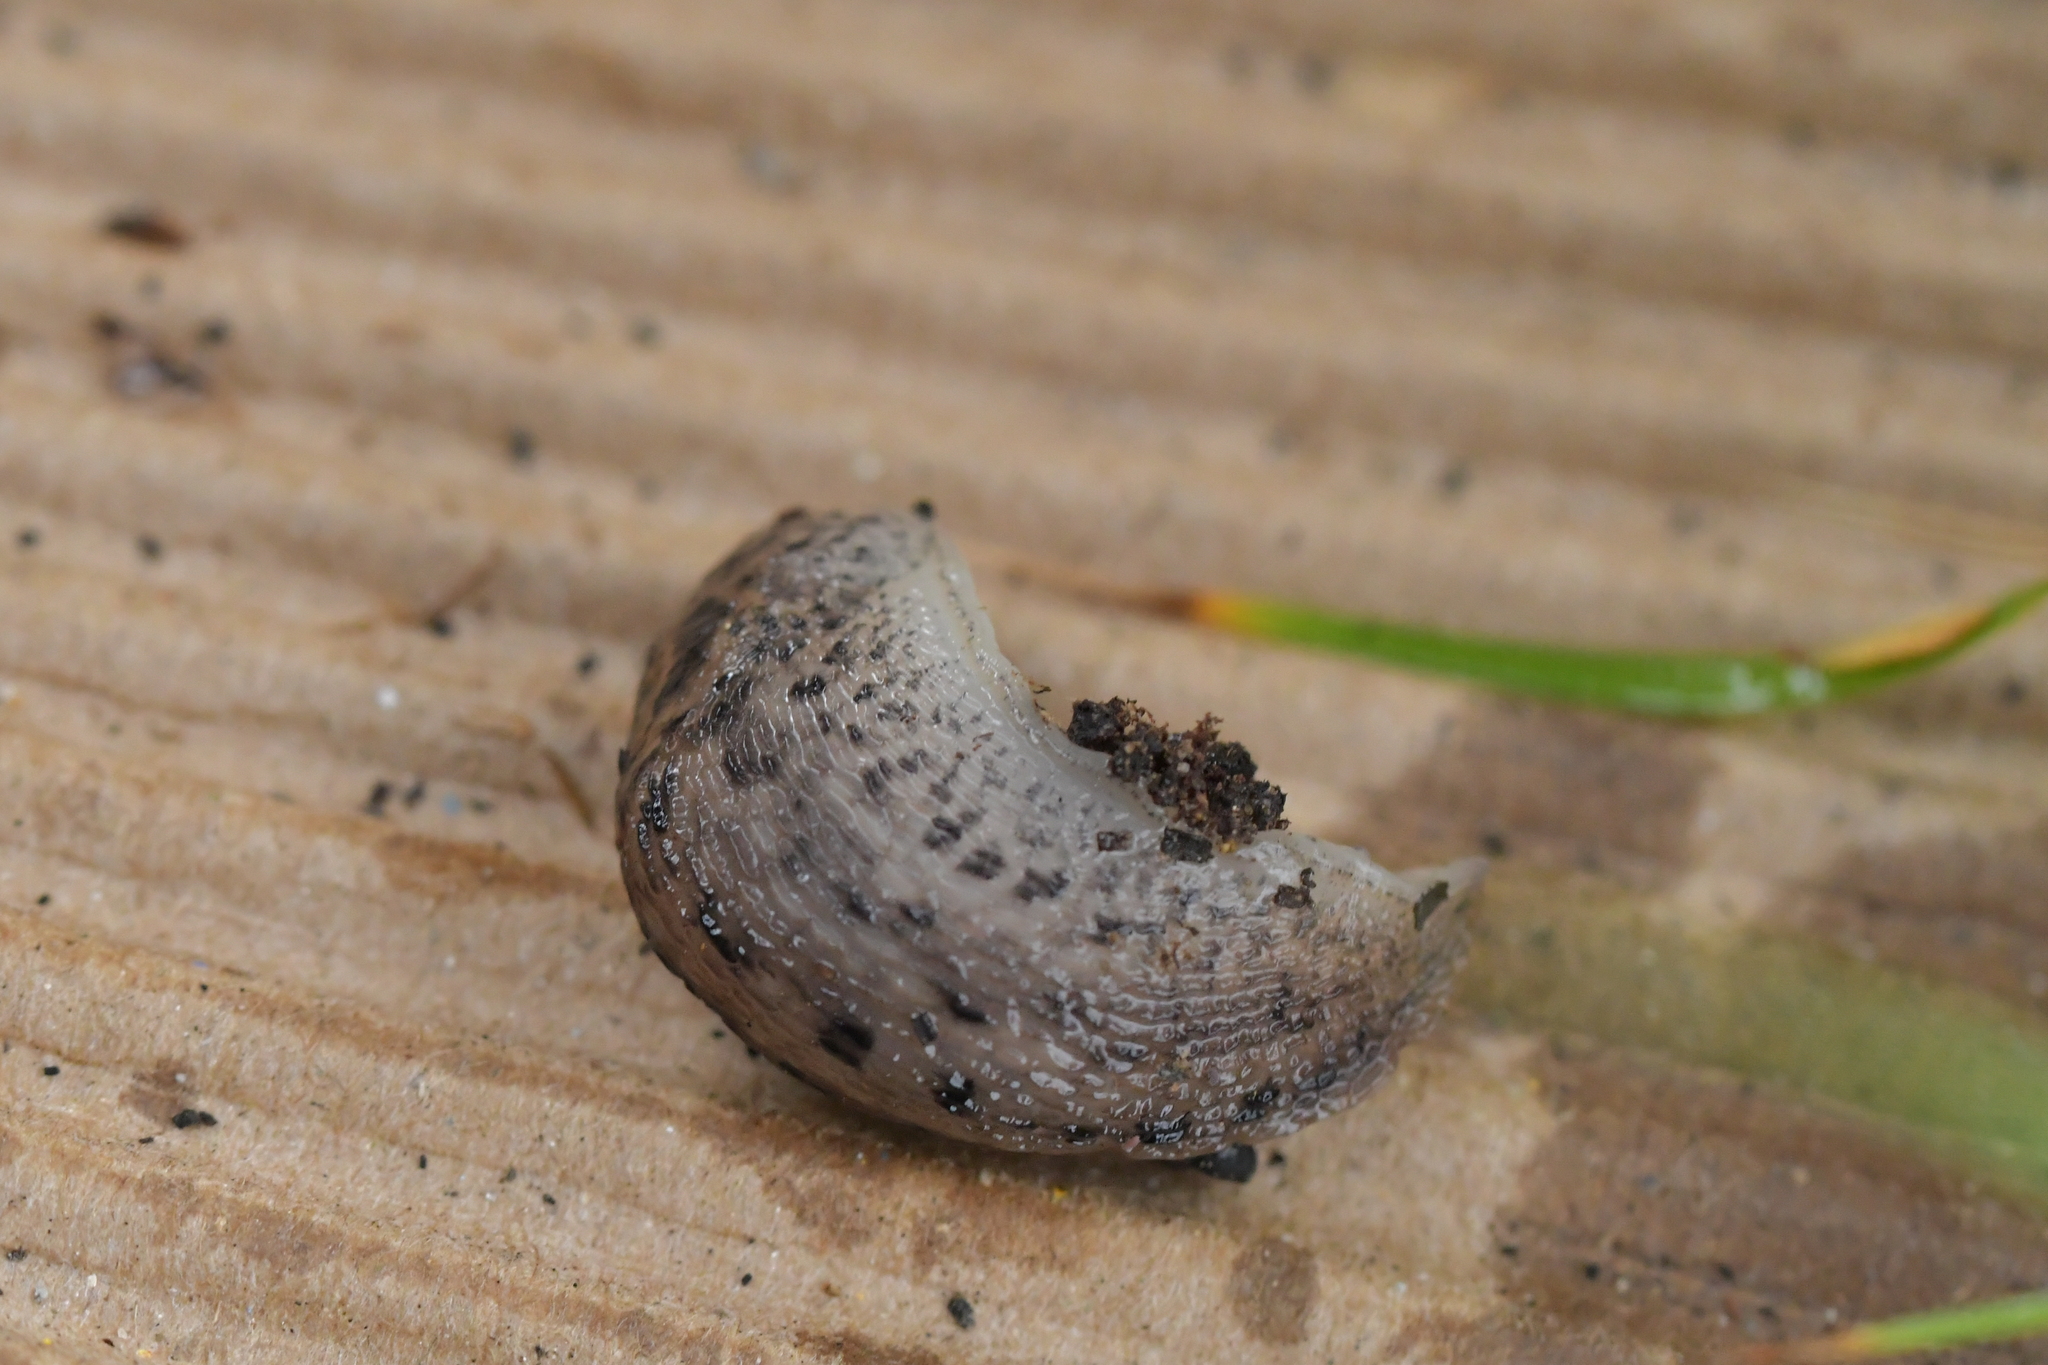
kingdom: Animalia
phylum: Mollusca
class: Gastropoda
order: Stylommatophora
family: Limacidae
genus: Limax
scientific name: Limax maximus
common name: Great grey slug
